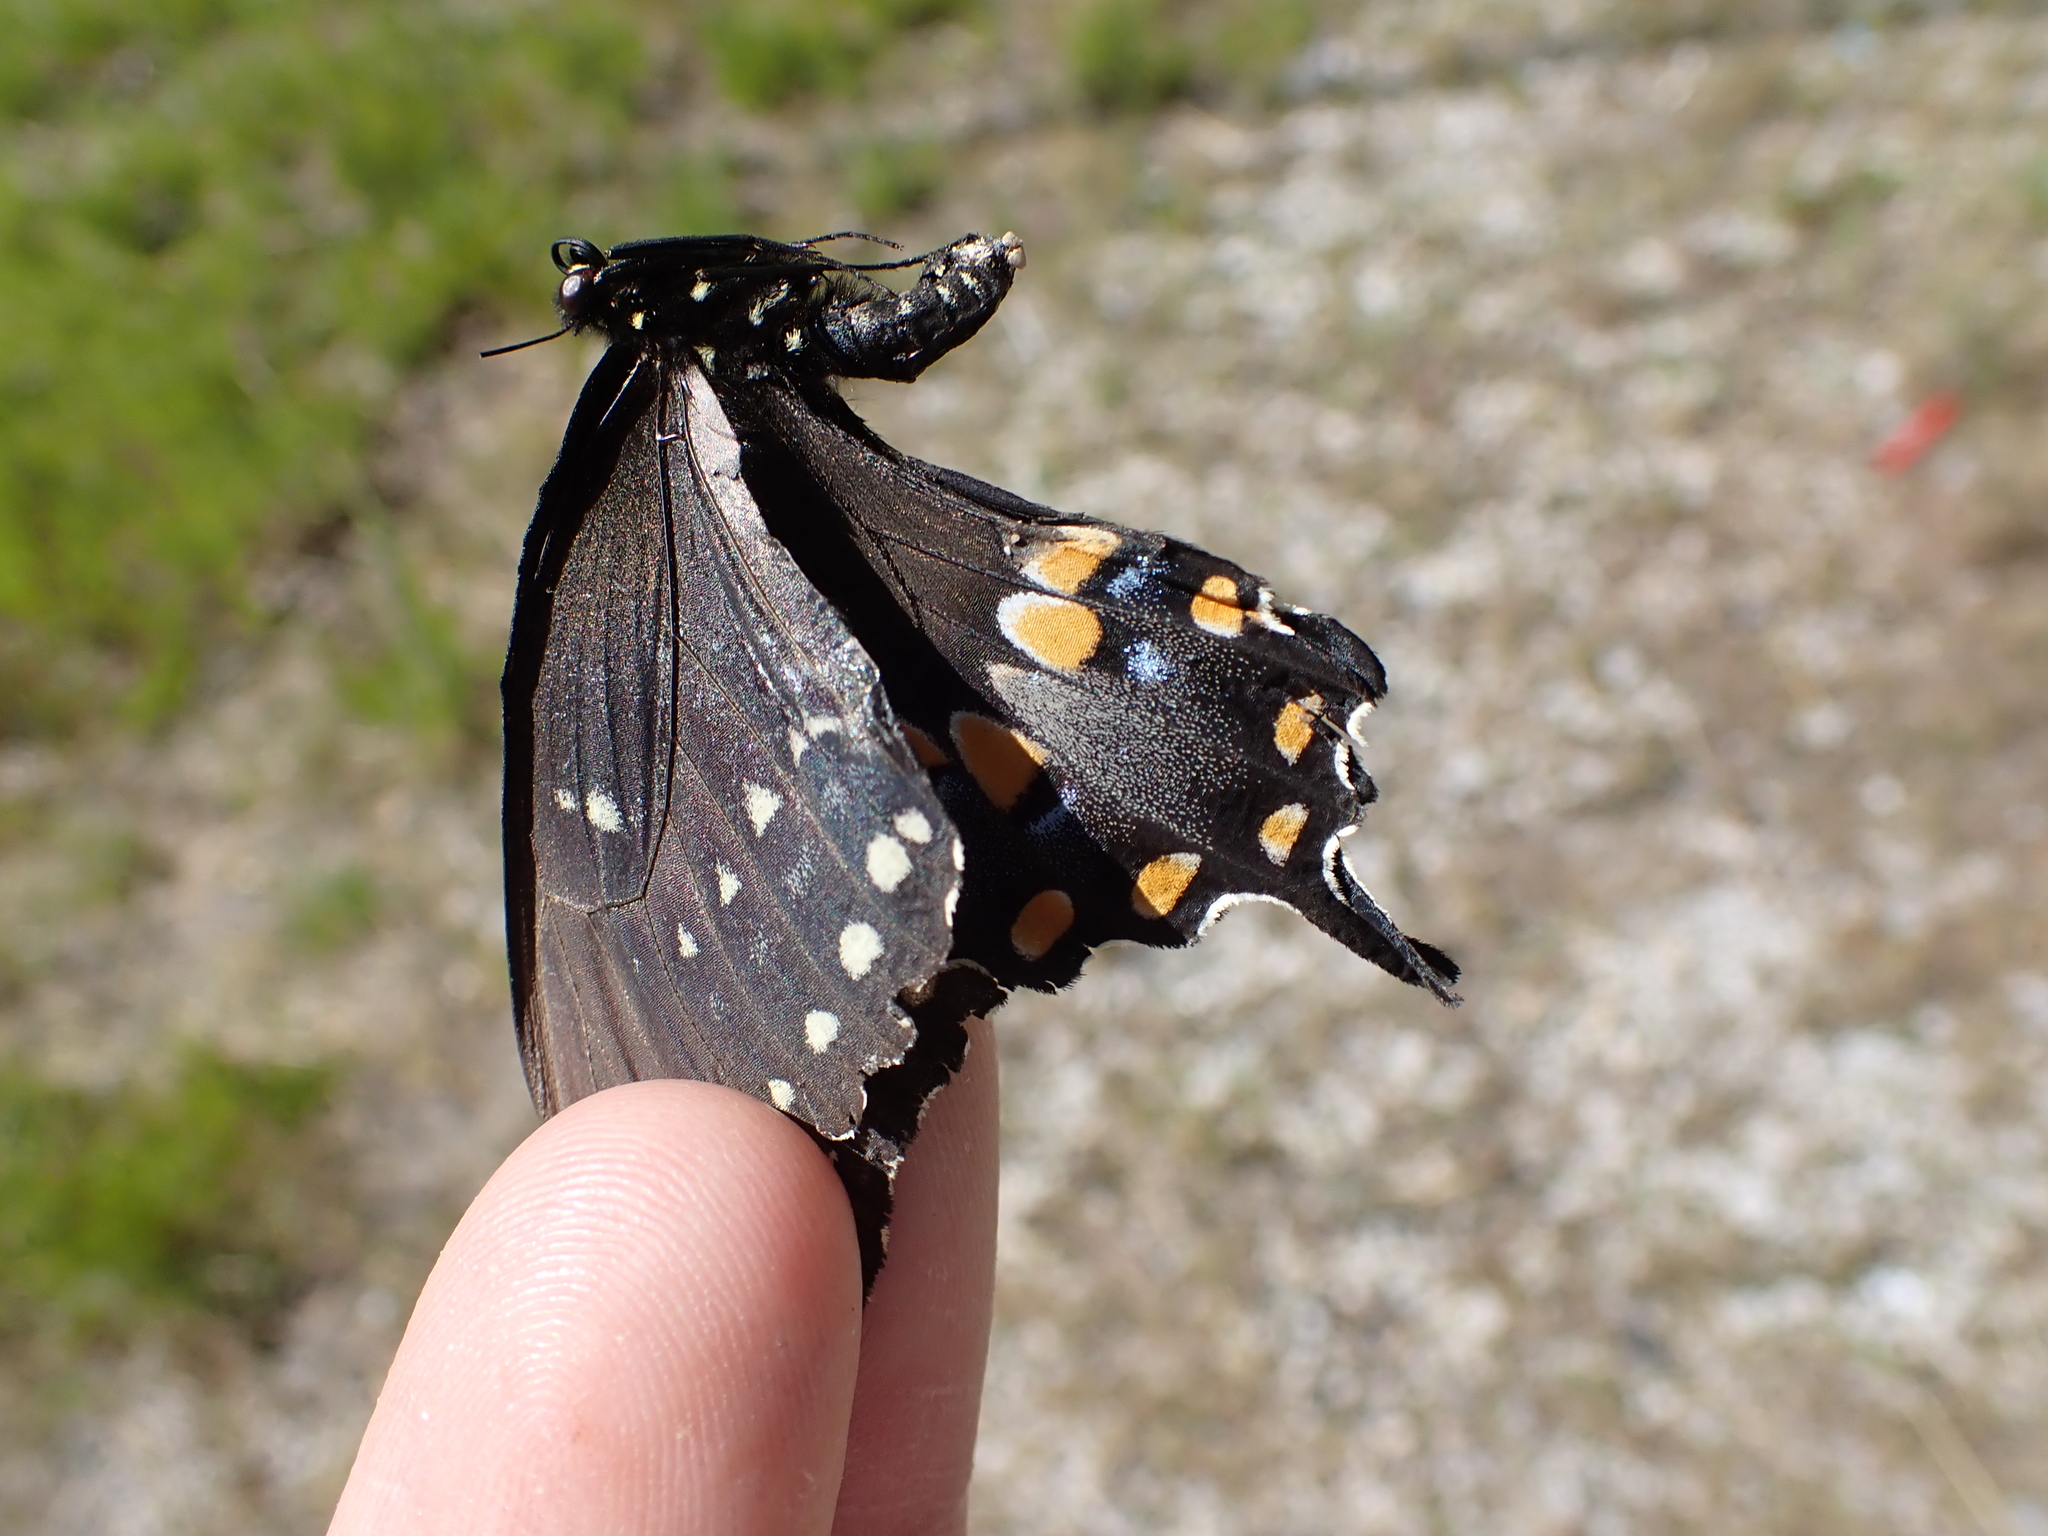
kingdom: Animalia
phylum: Arthropoda
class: Insecta
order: Lepidoptera
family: Papilionidae
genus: Papilio
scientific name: Papilio troilus
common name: Spicebush swallowtail
